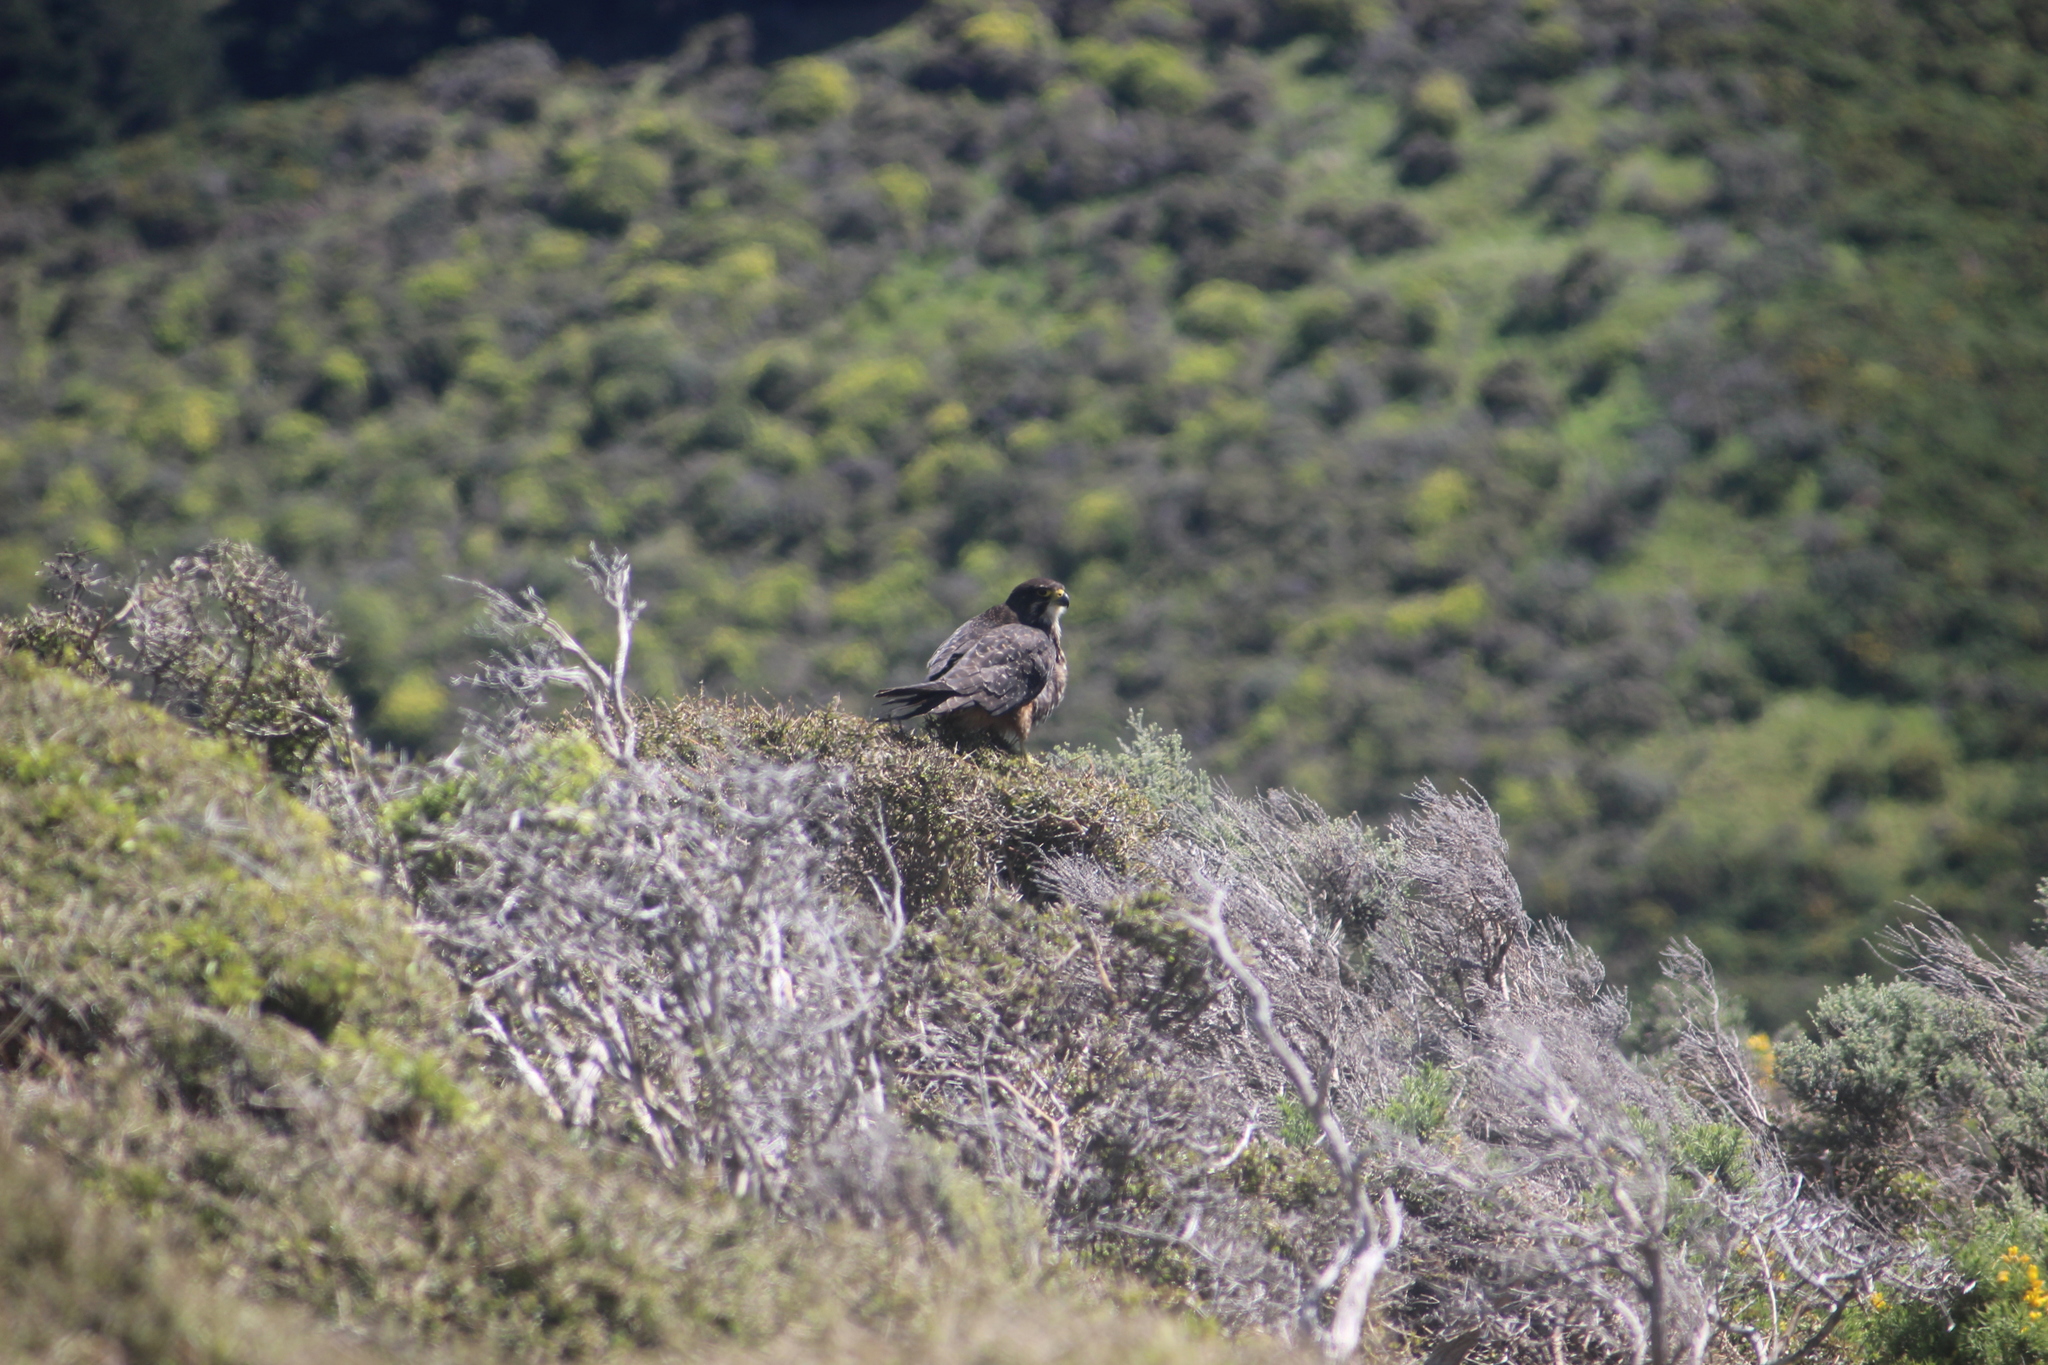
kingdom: Animalia
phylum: Chordata
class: Aves
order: Falconiformes
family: Falconidae
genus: Falco
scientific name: Falco novaeseelandiae
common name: New zealand falcon
